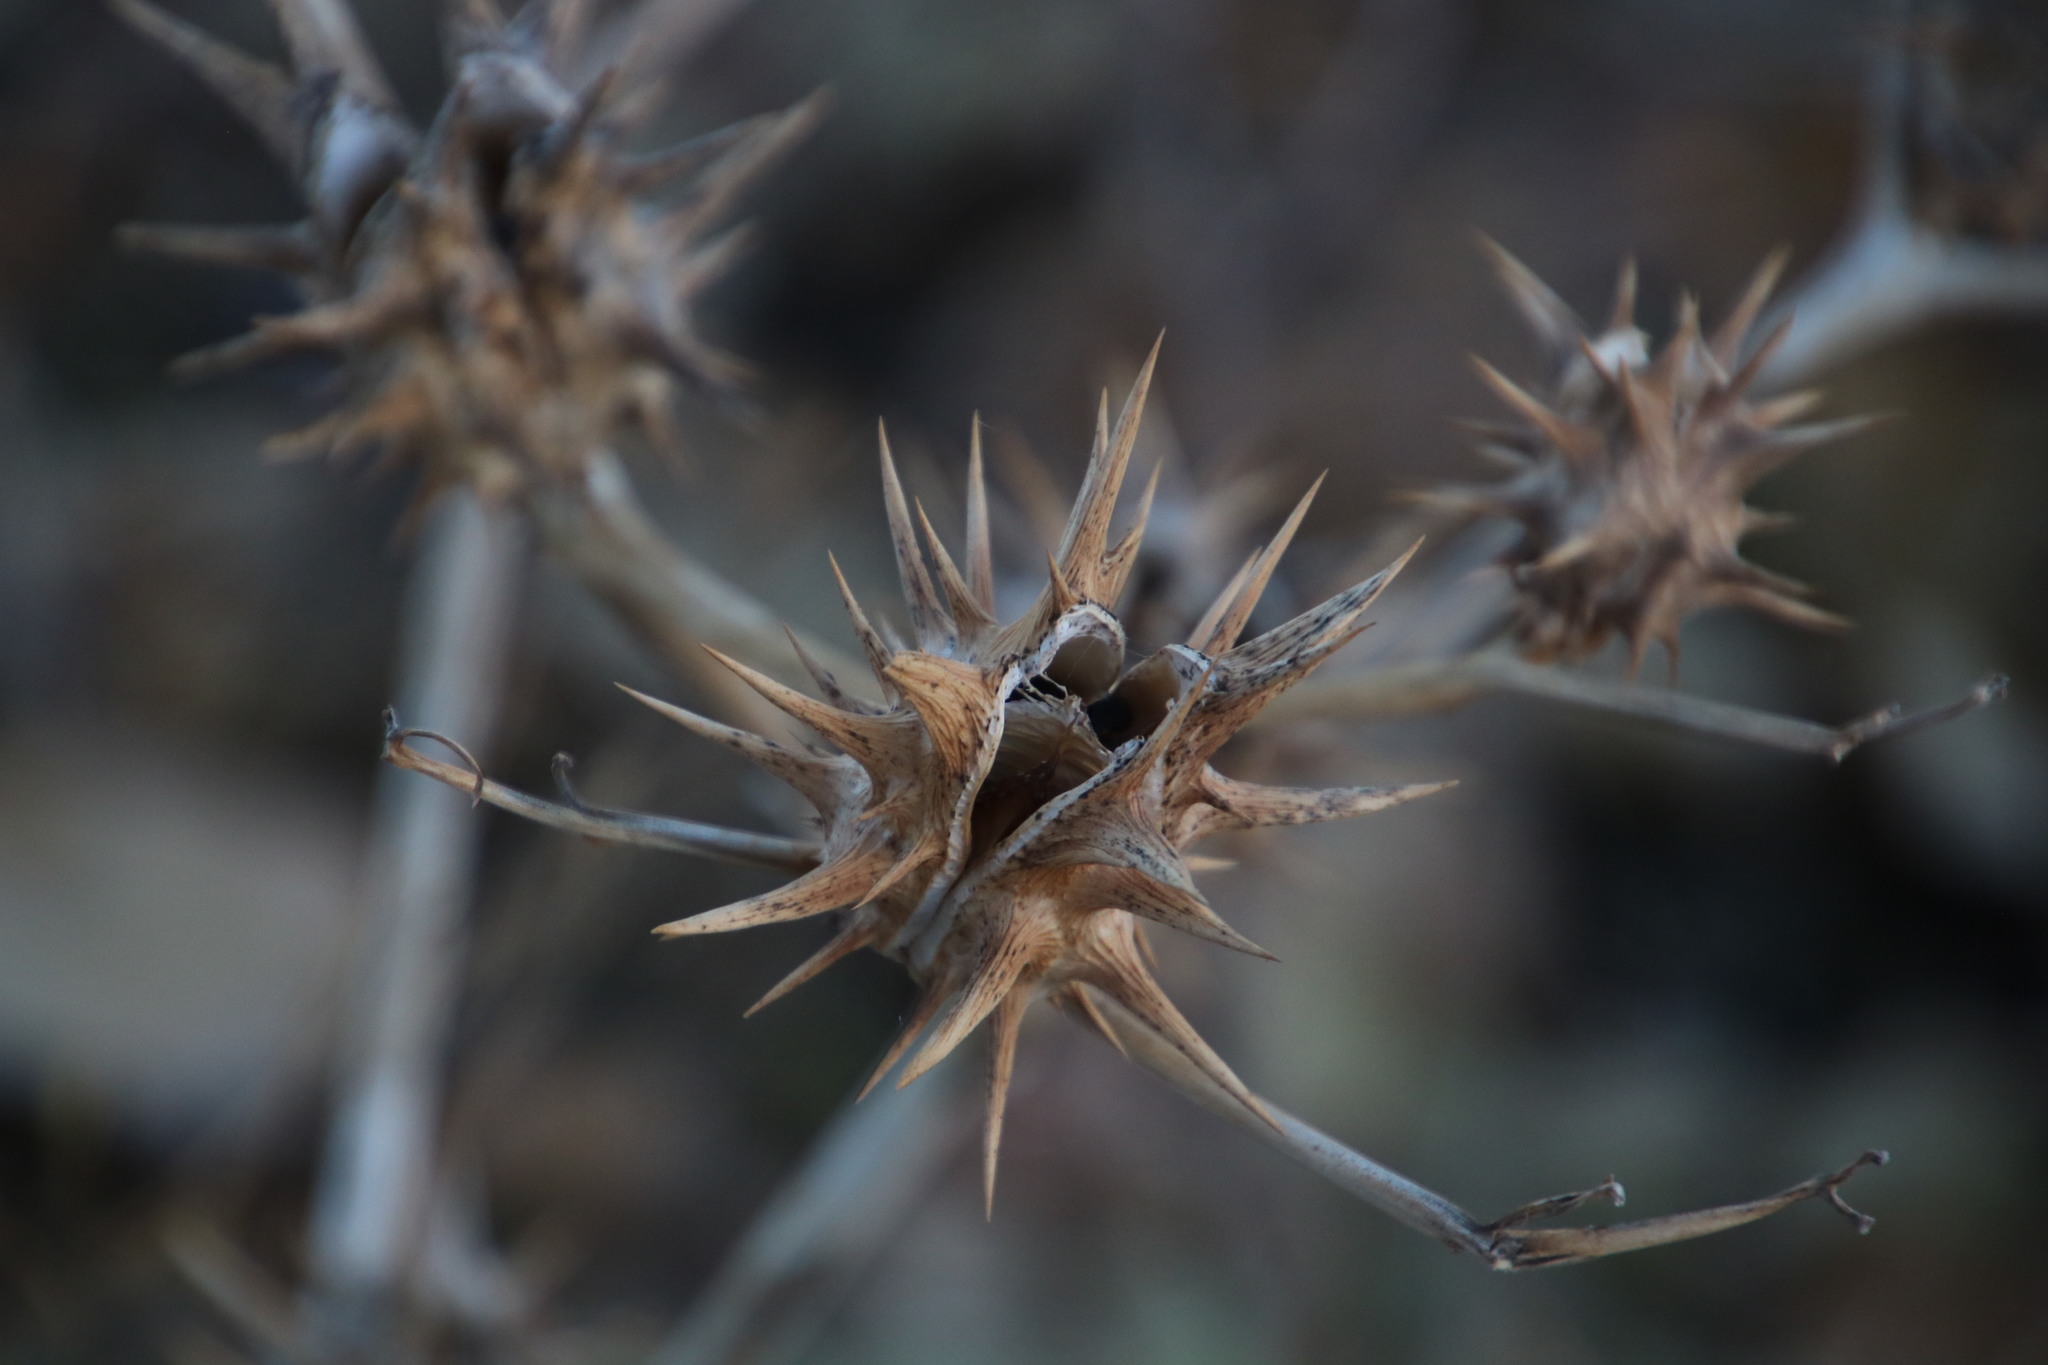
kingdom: Plantae
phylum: Tracheophyta
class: Magnoliopsida
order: Solanales
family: Solanaceae
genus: Datura
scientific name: Datura ferox
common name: Angel's-trumpets
